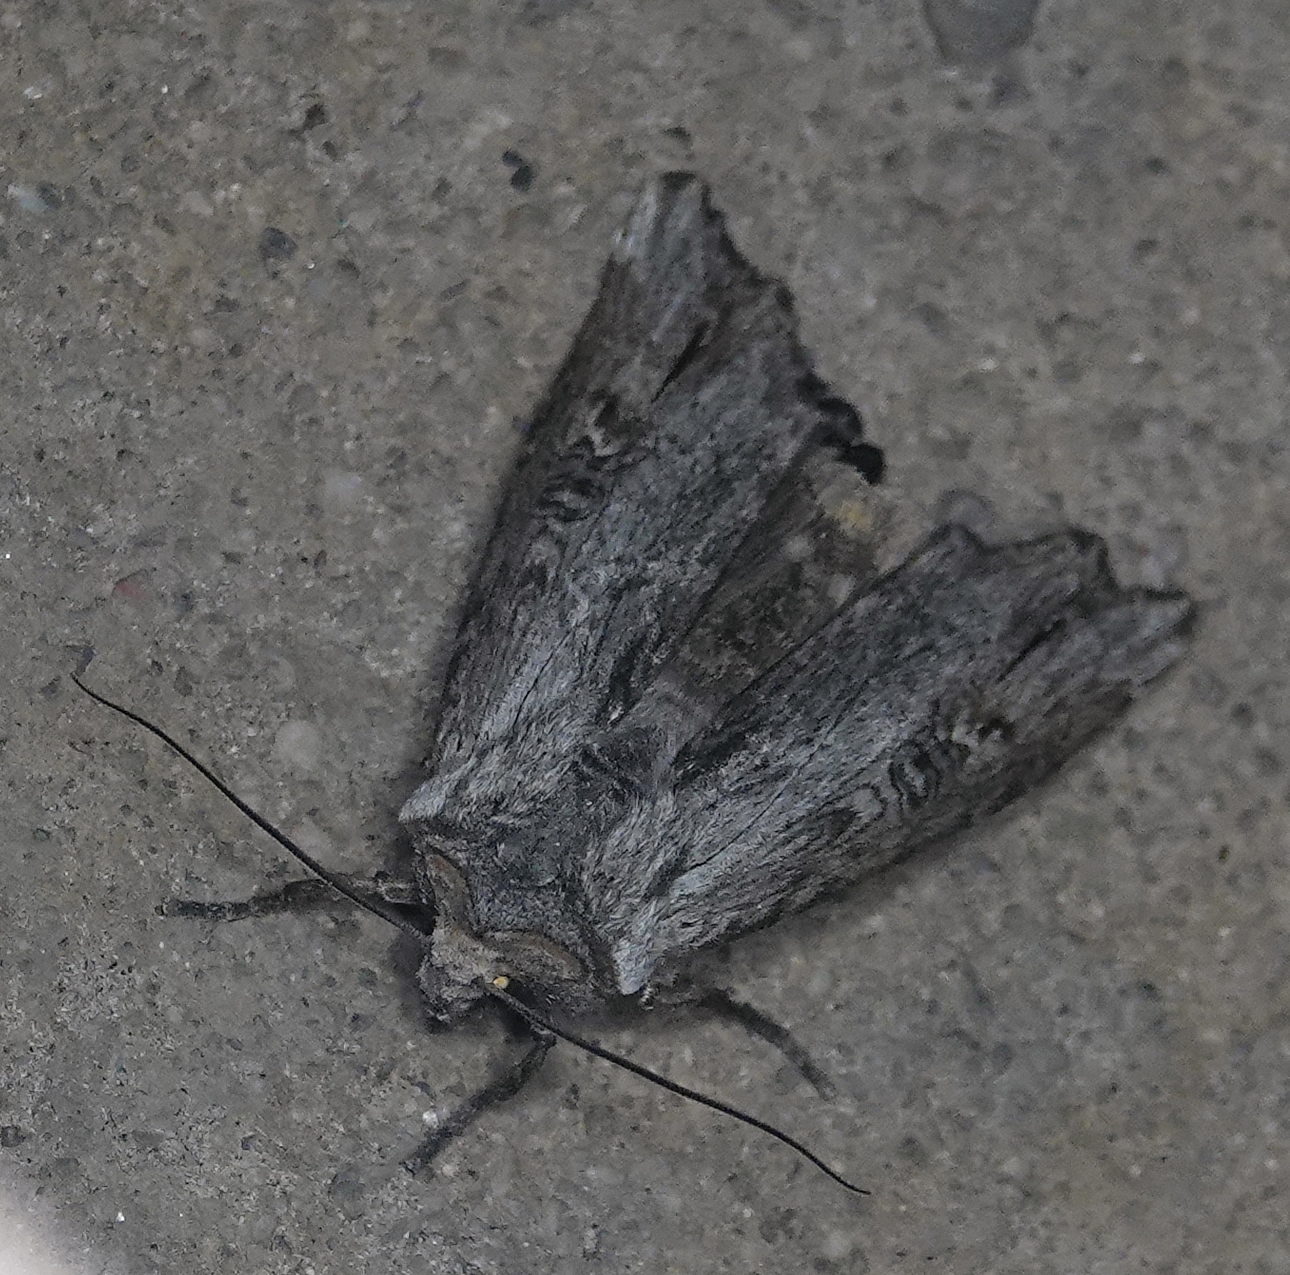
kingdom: Animalia
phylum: Arthropoda
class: Insecta
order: Lepidoptera
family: Noctuidae
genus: Xylena
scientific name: Xylena germana
